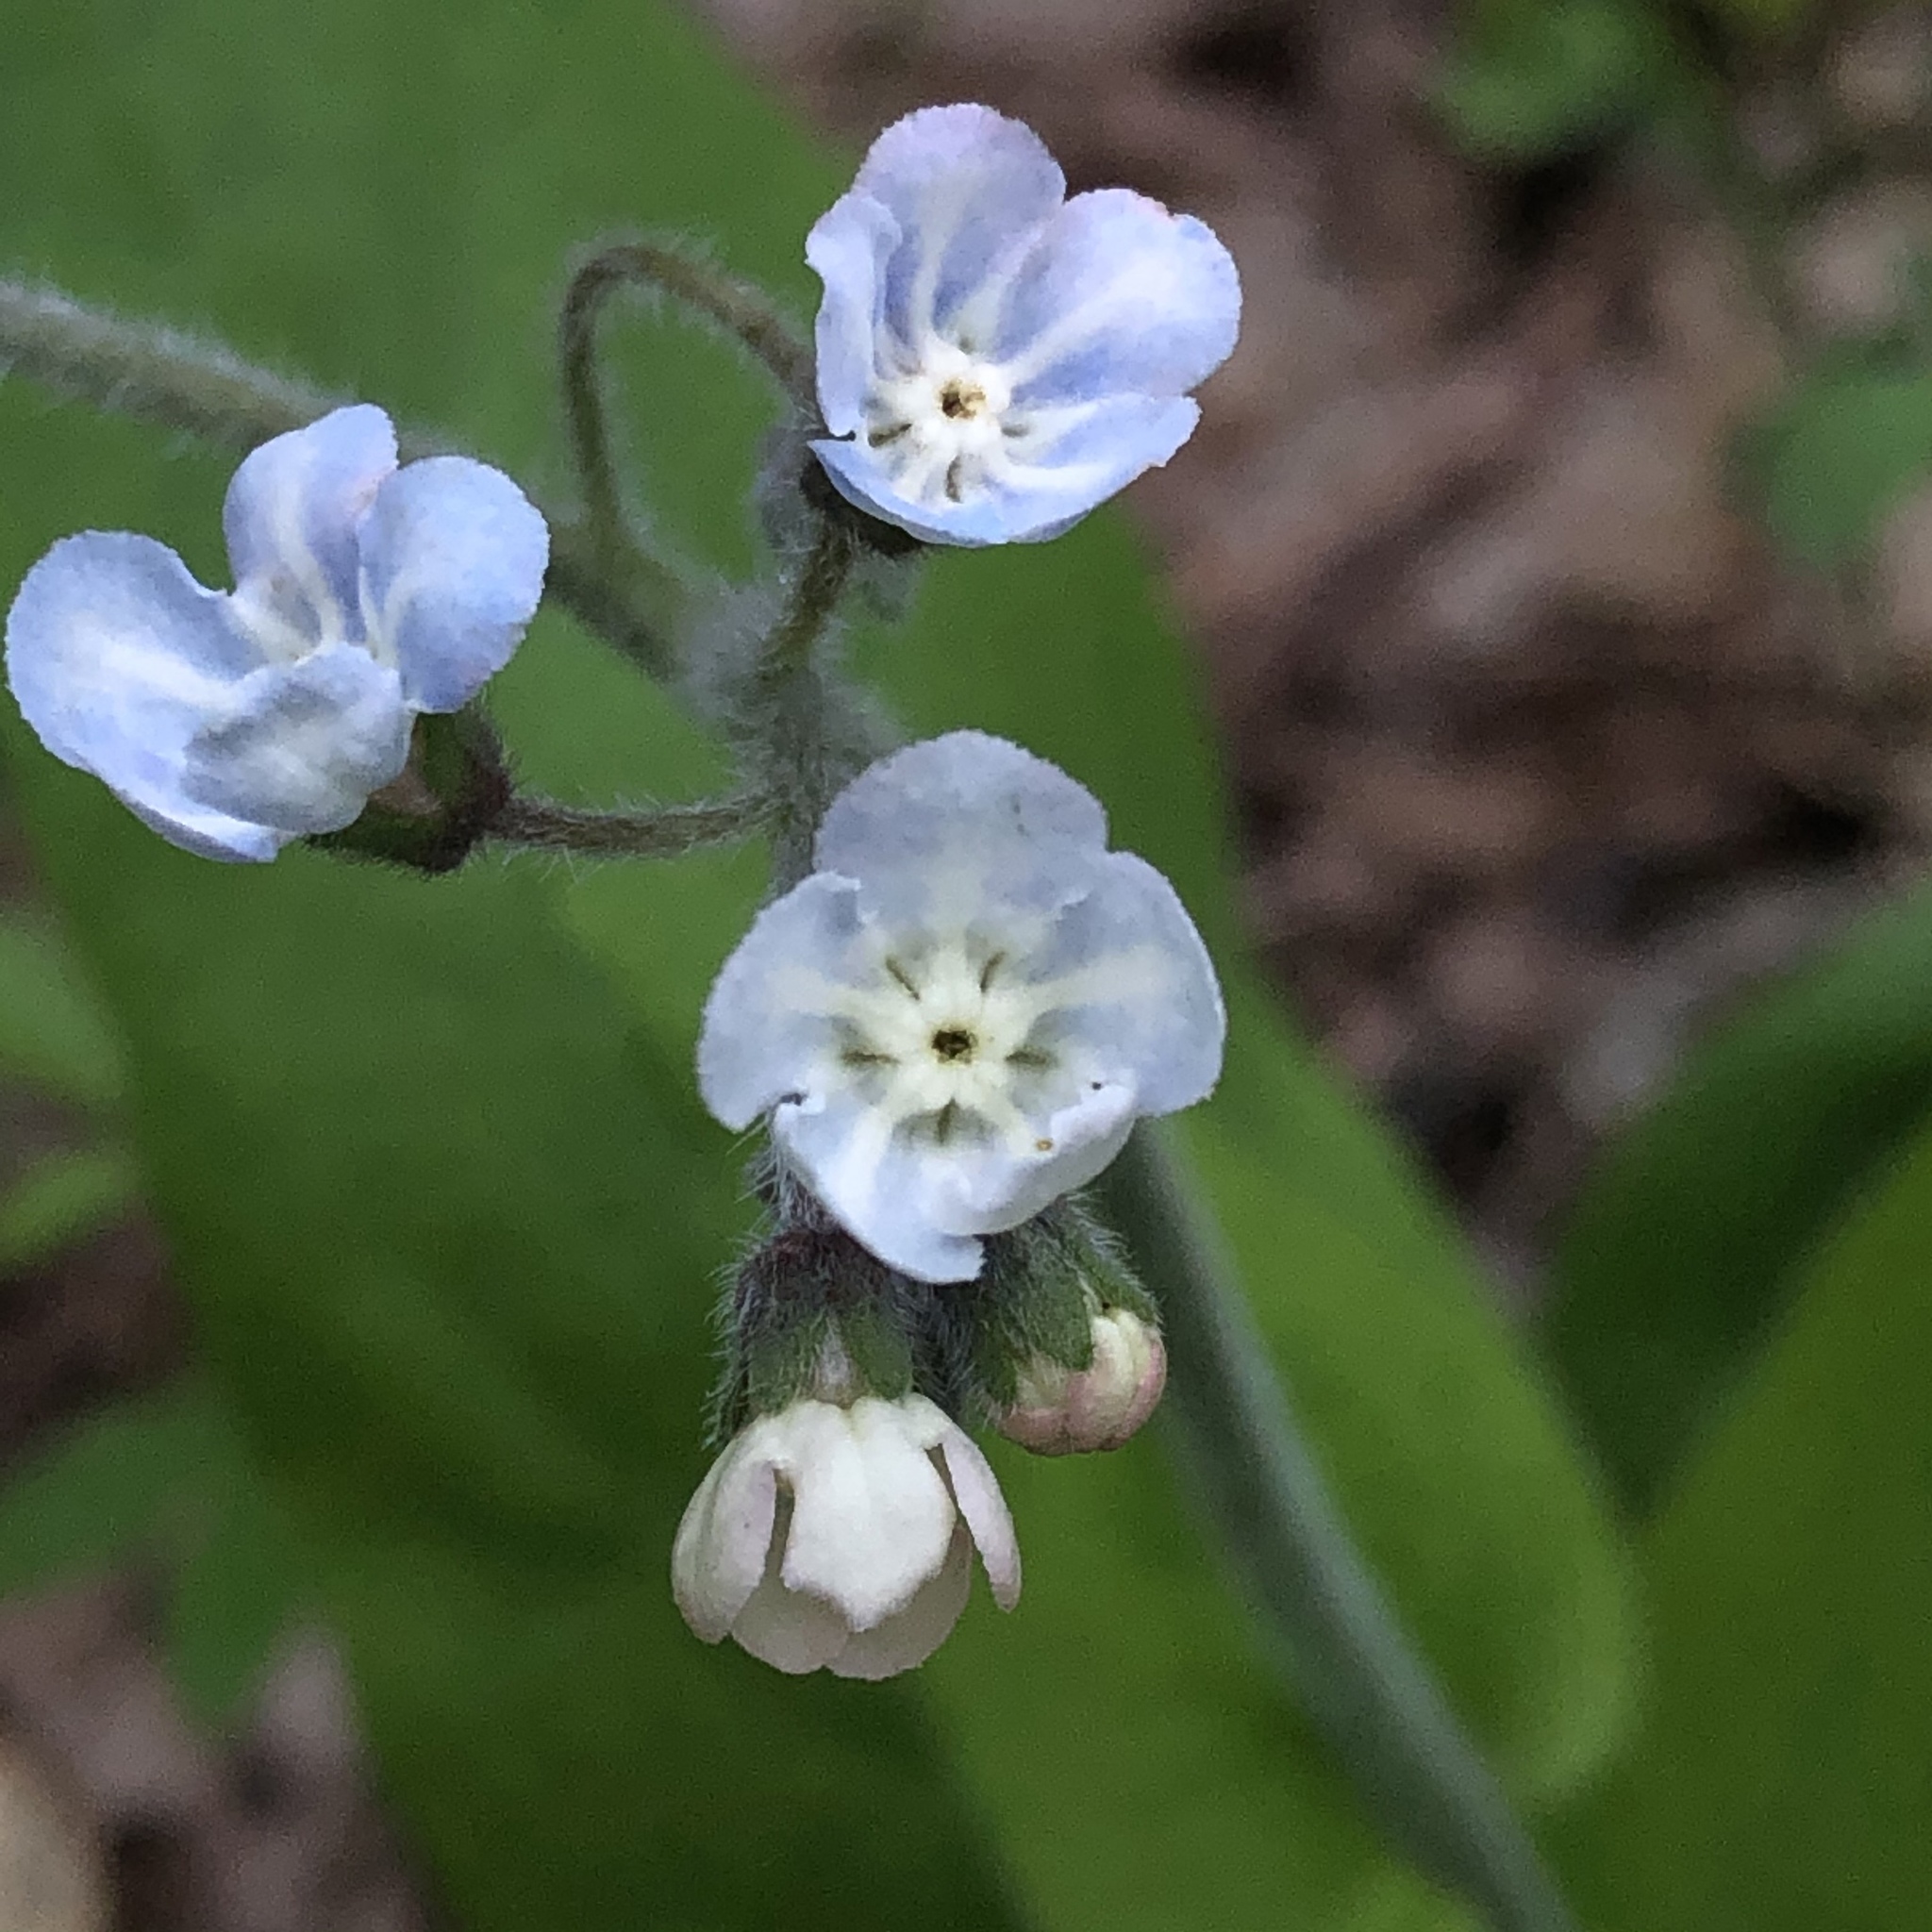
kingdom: Plantae
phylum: Tracheophyta
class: Magnoliopsida
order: Boraginales
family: Boraginaceae
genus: Andersonglossum
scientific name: Andersonglossum virginianum
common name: Wild comfrey
